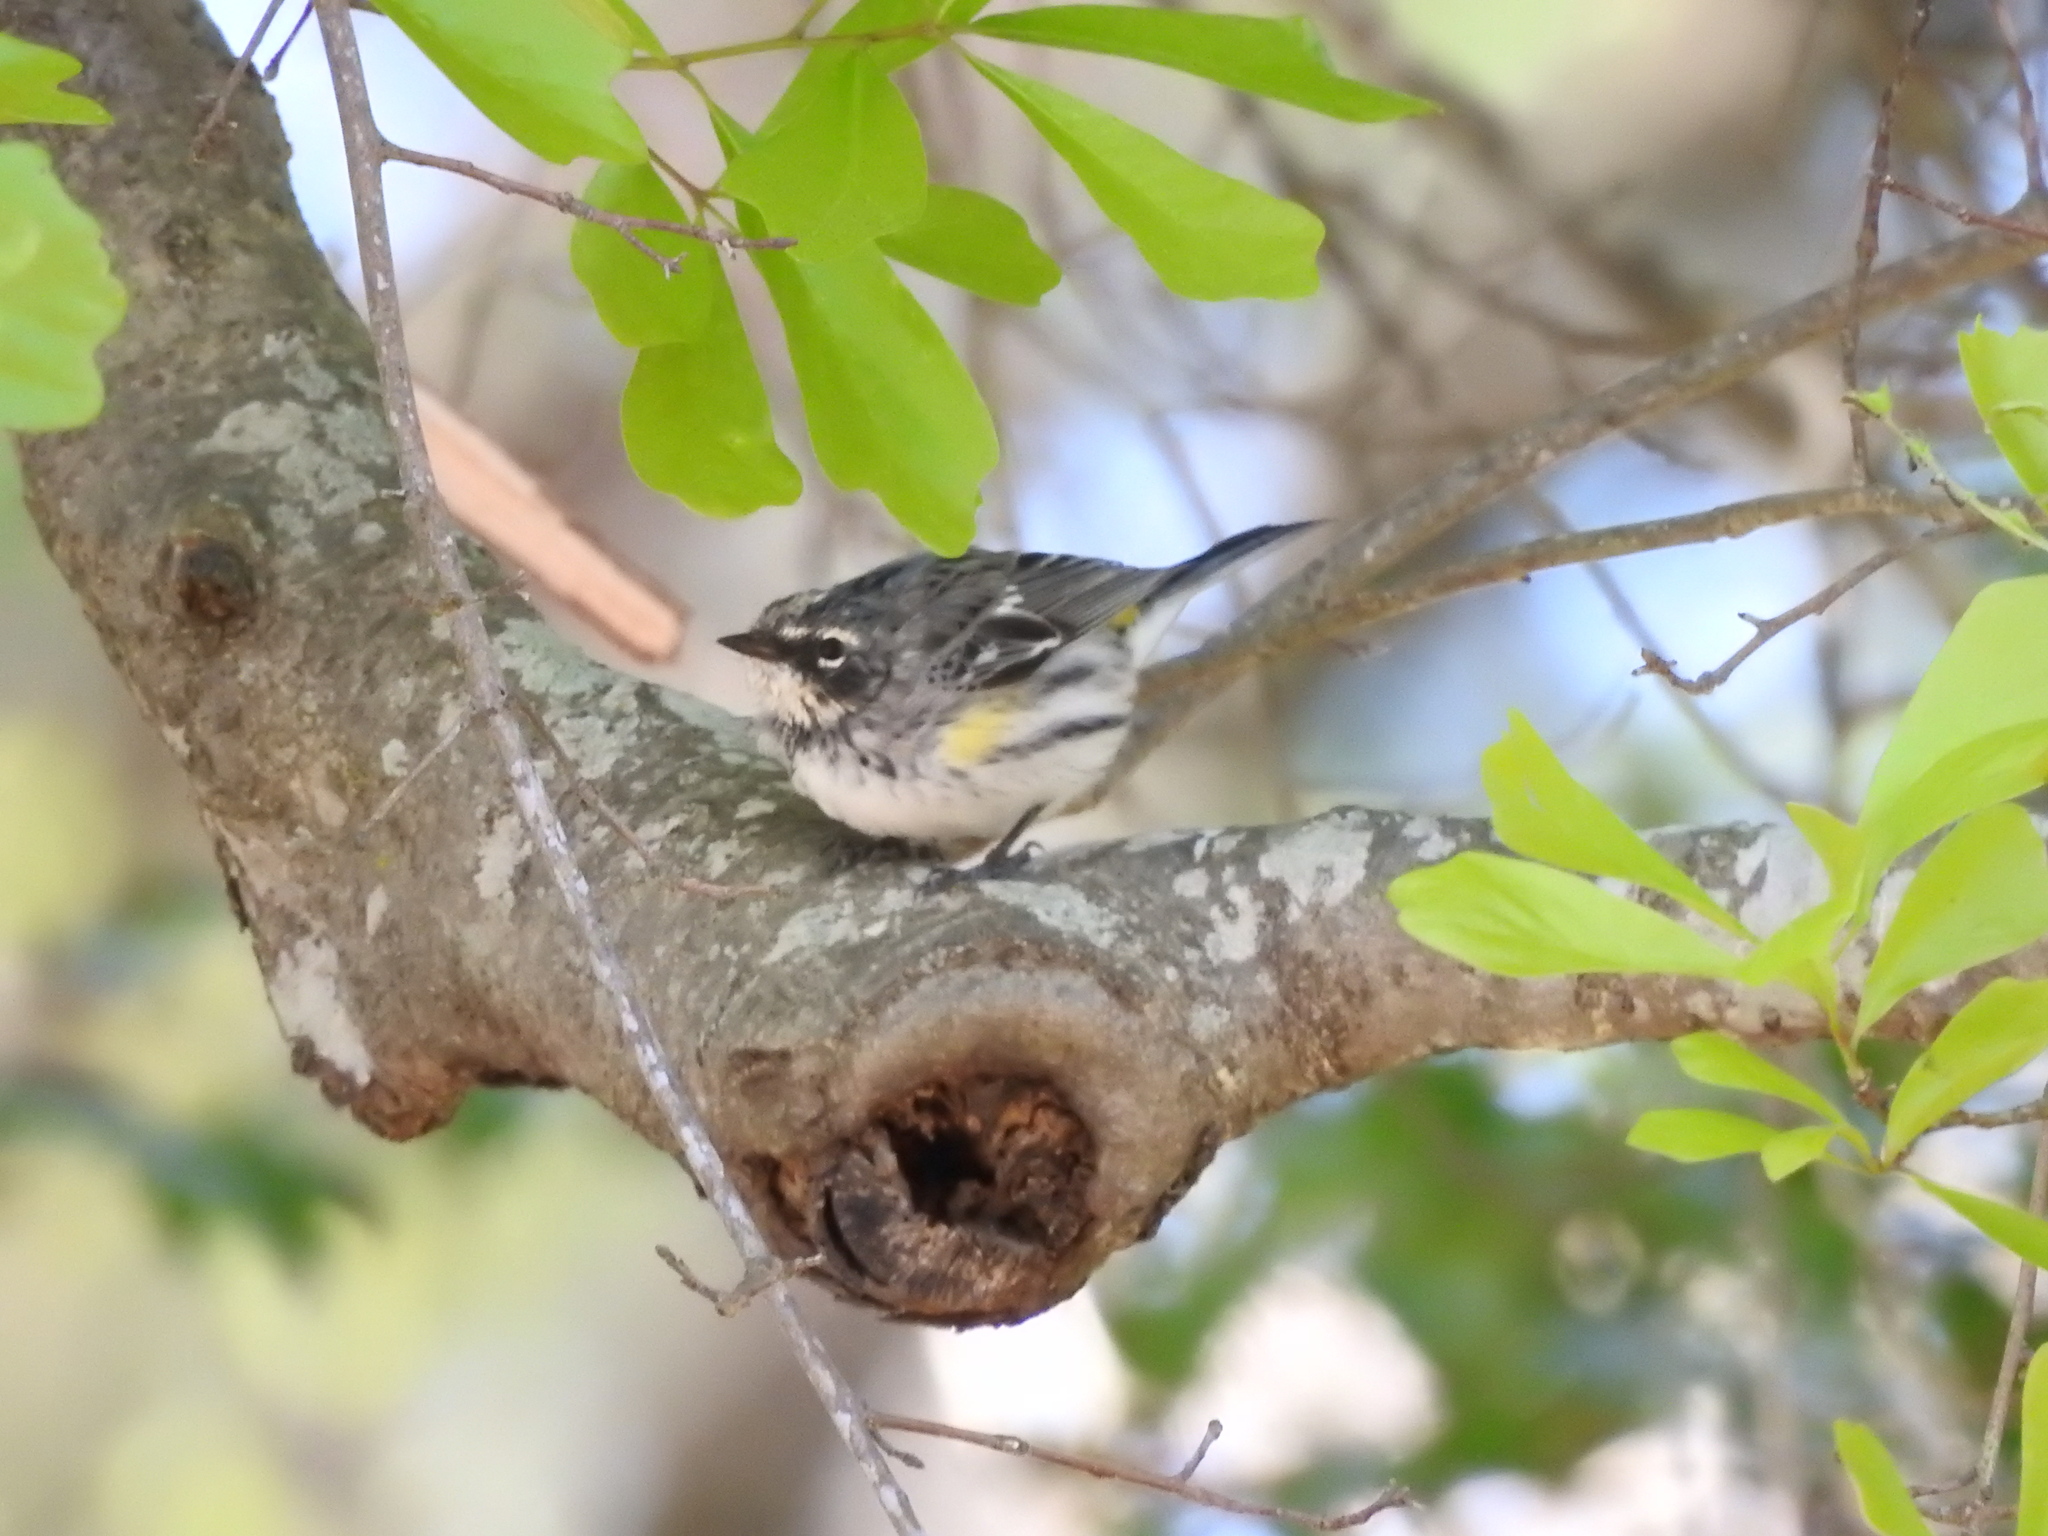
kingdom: Animalia
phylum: Chordata
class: Aves
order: Passeriformes
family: Parulidae
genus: Setophaga
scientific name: Setophaga coronata
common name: Myrtle warbler
